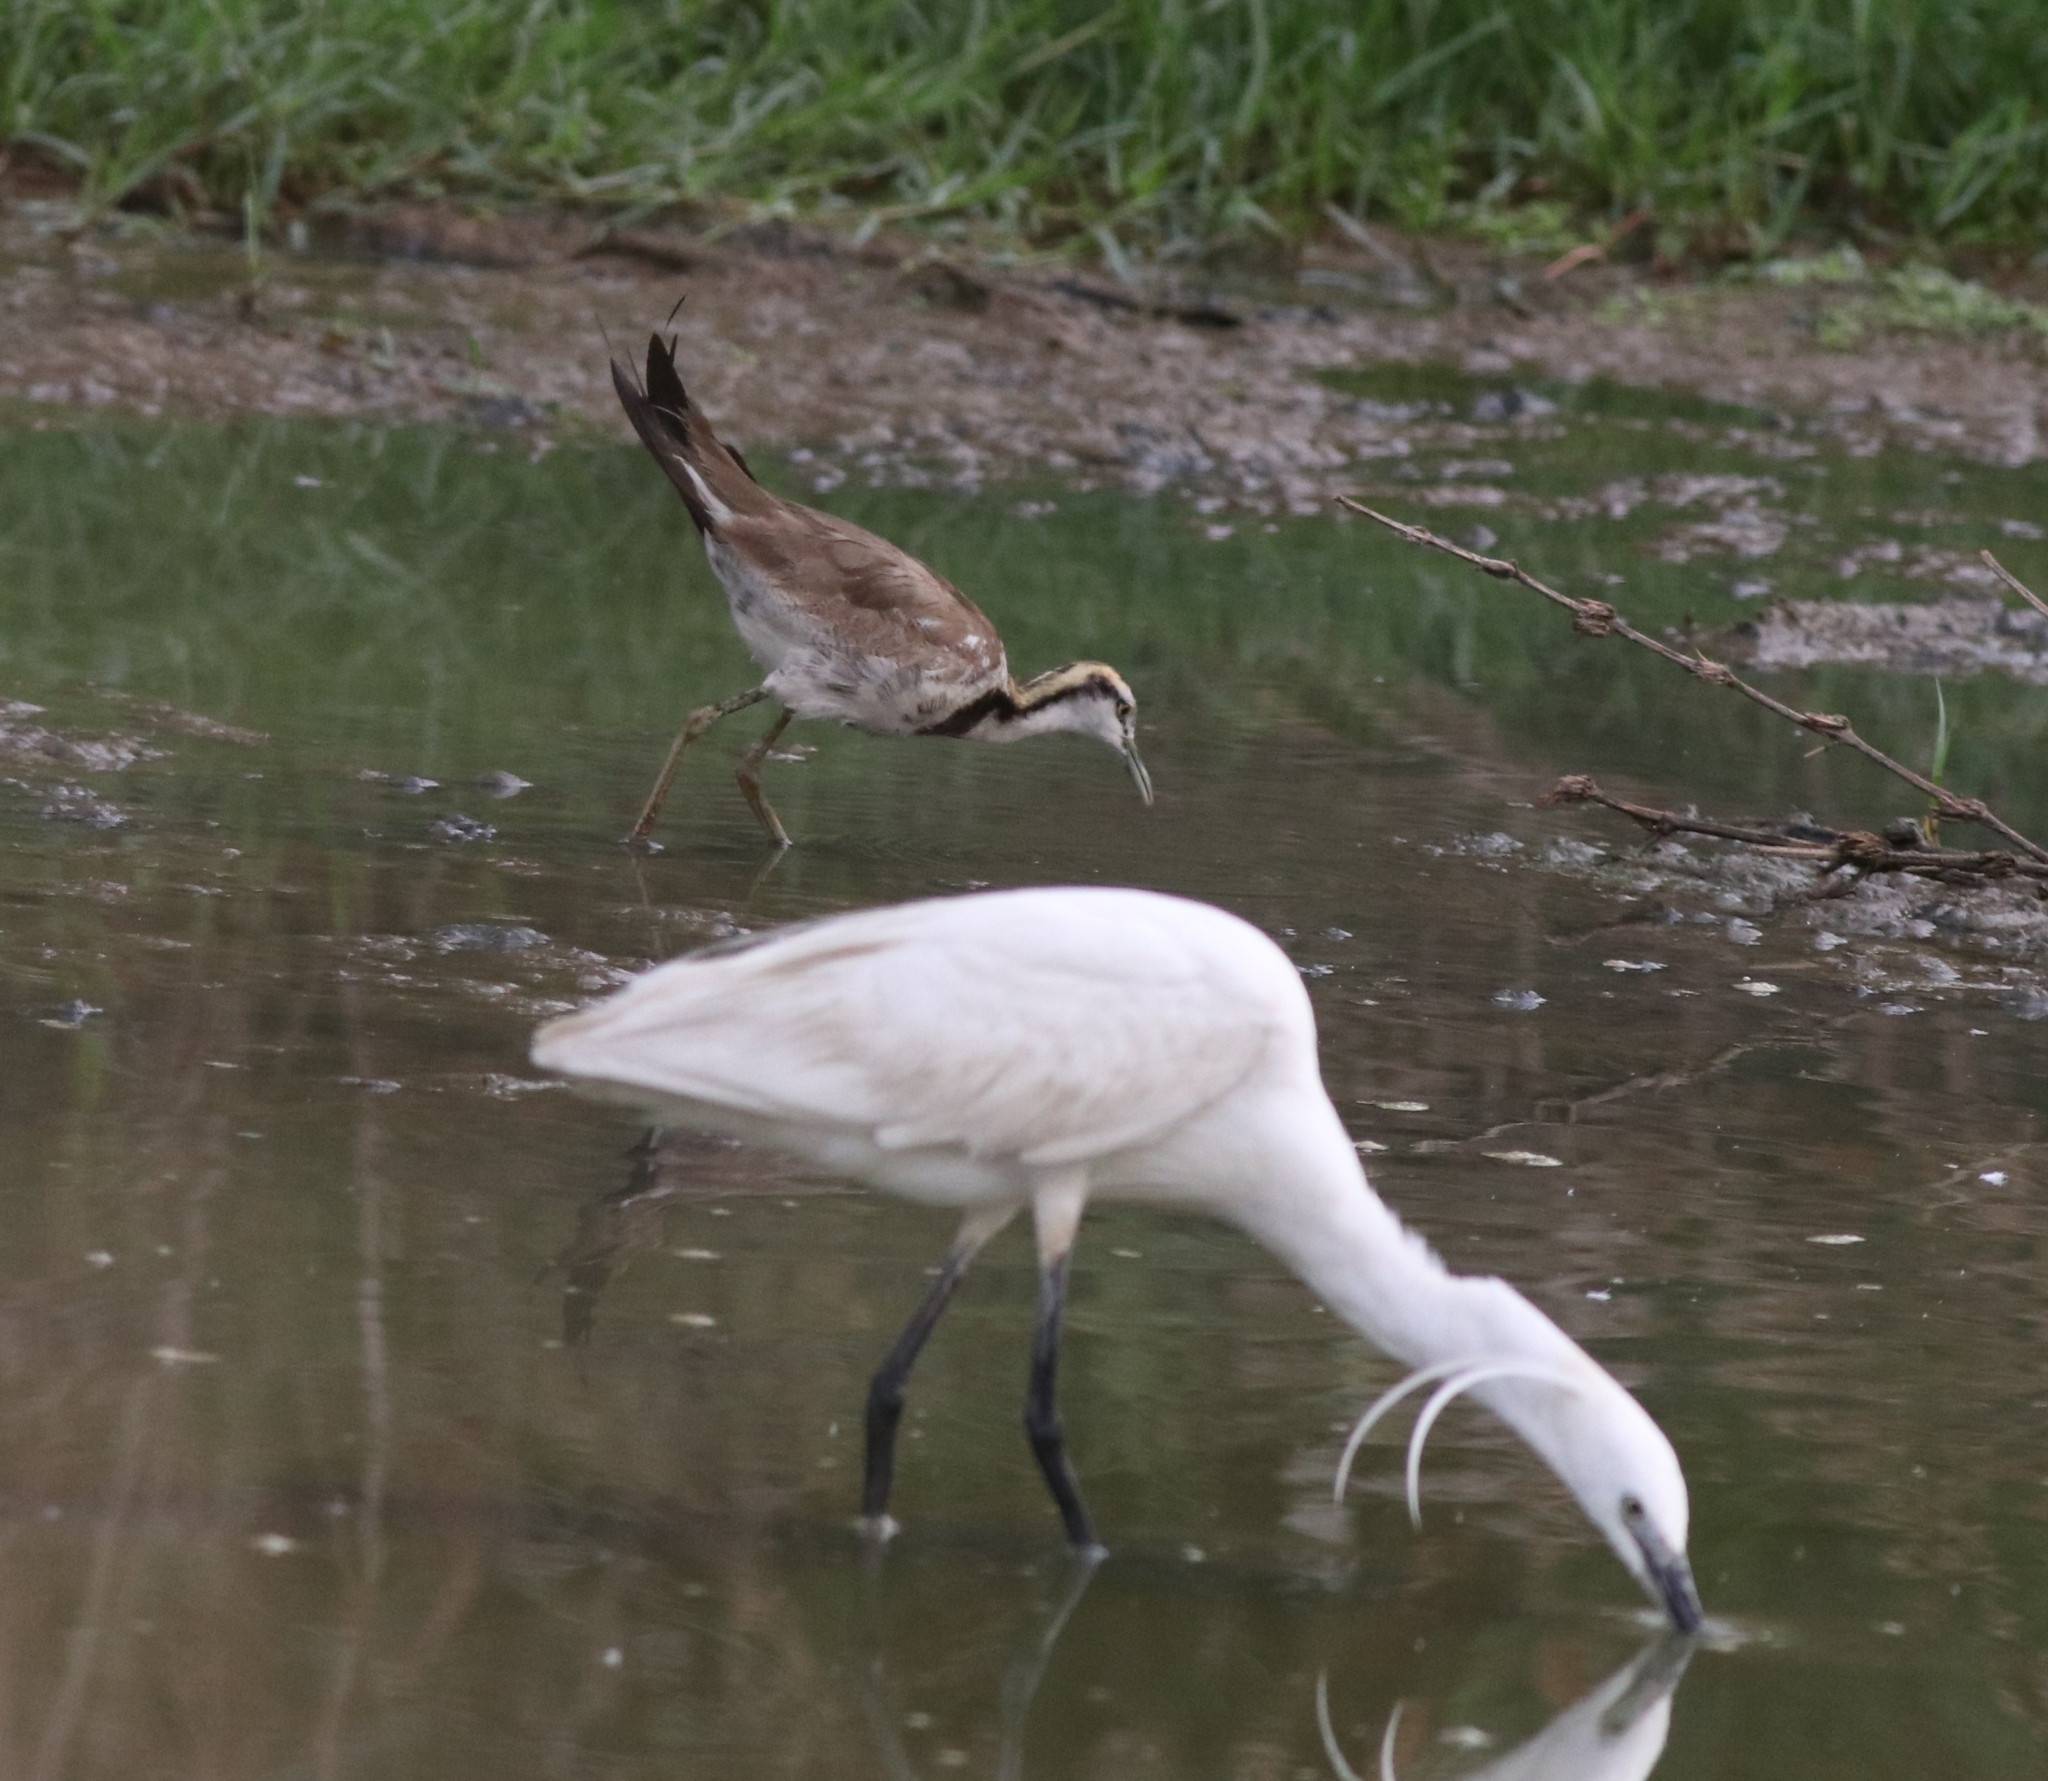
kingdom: Animalia
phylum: Chordata
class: Aves
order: Charadriiformes
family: Jacanidae
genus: Hydrophasianus
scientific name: Hydrophasianus chirurgus
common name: Pheasant-tailed jacana
